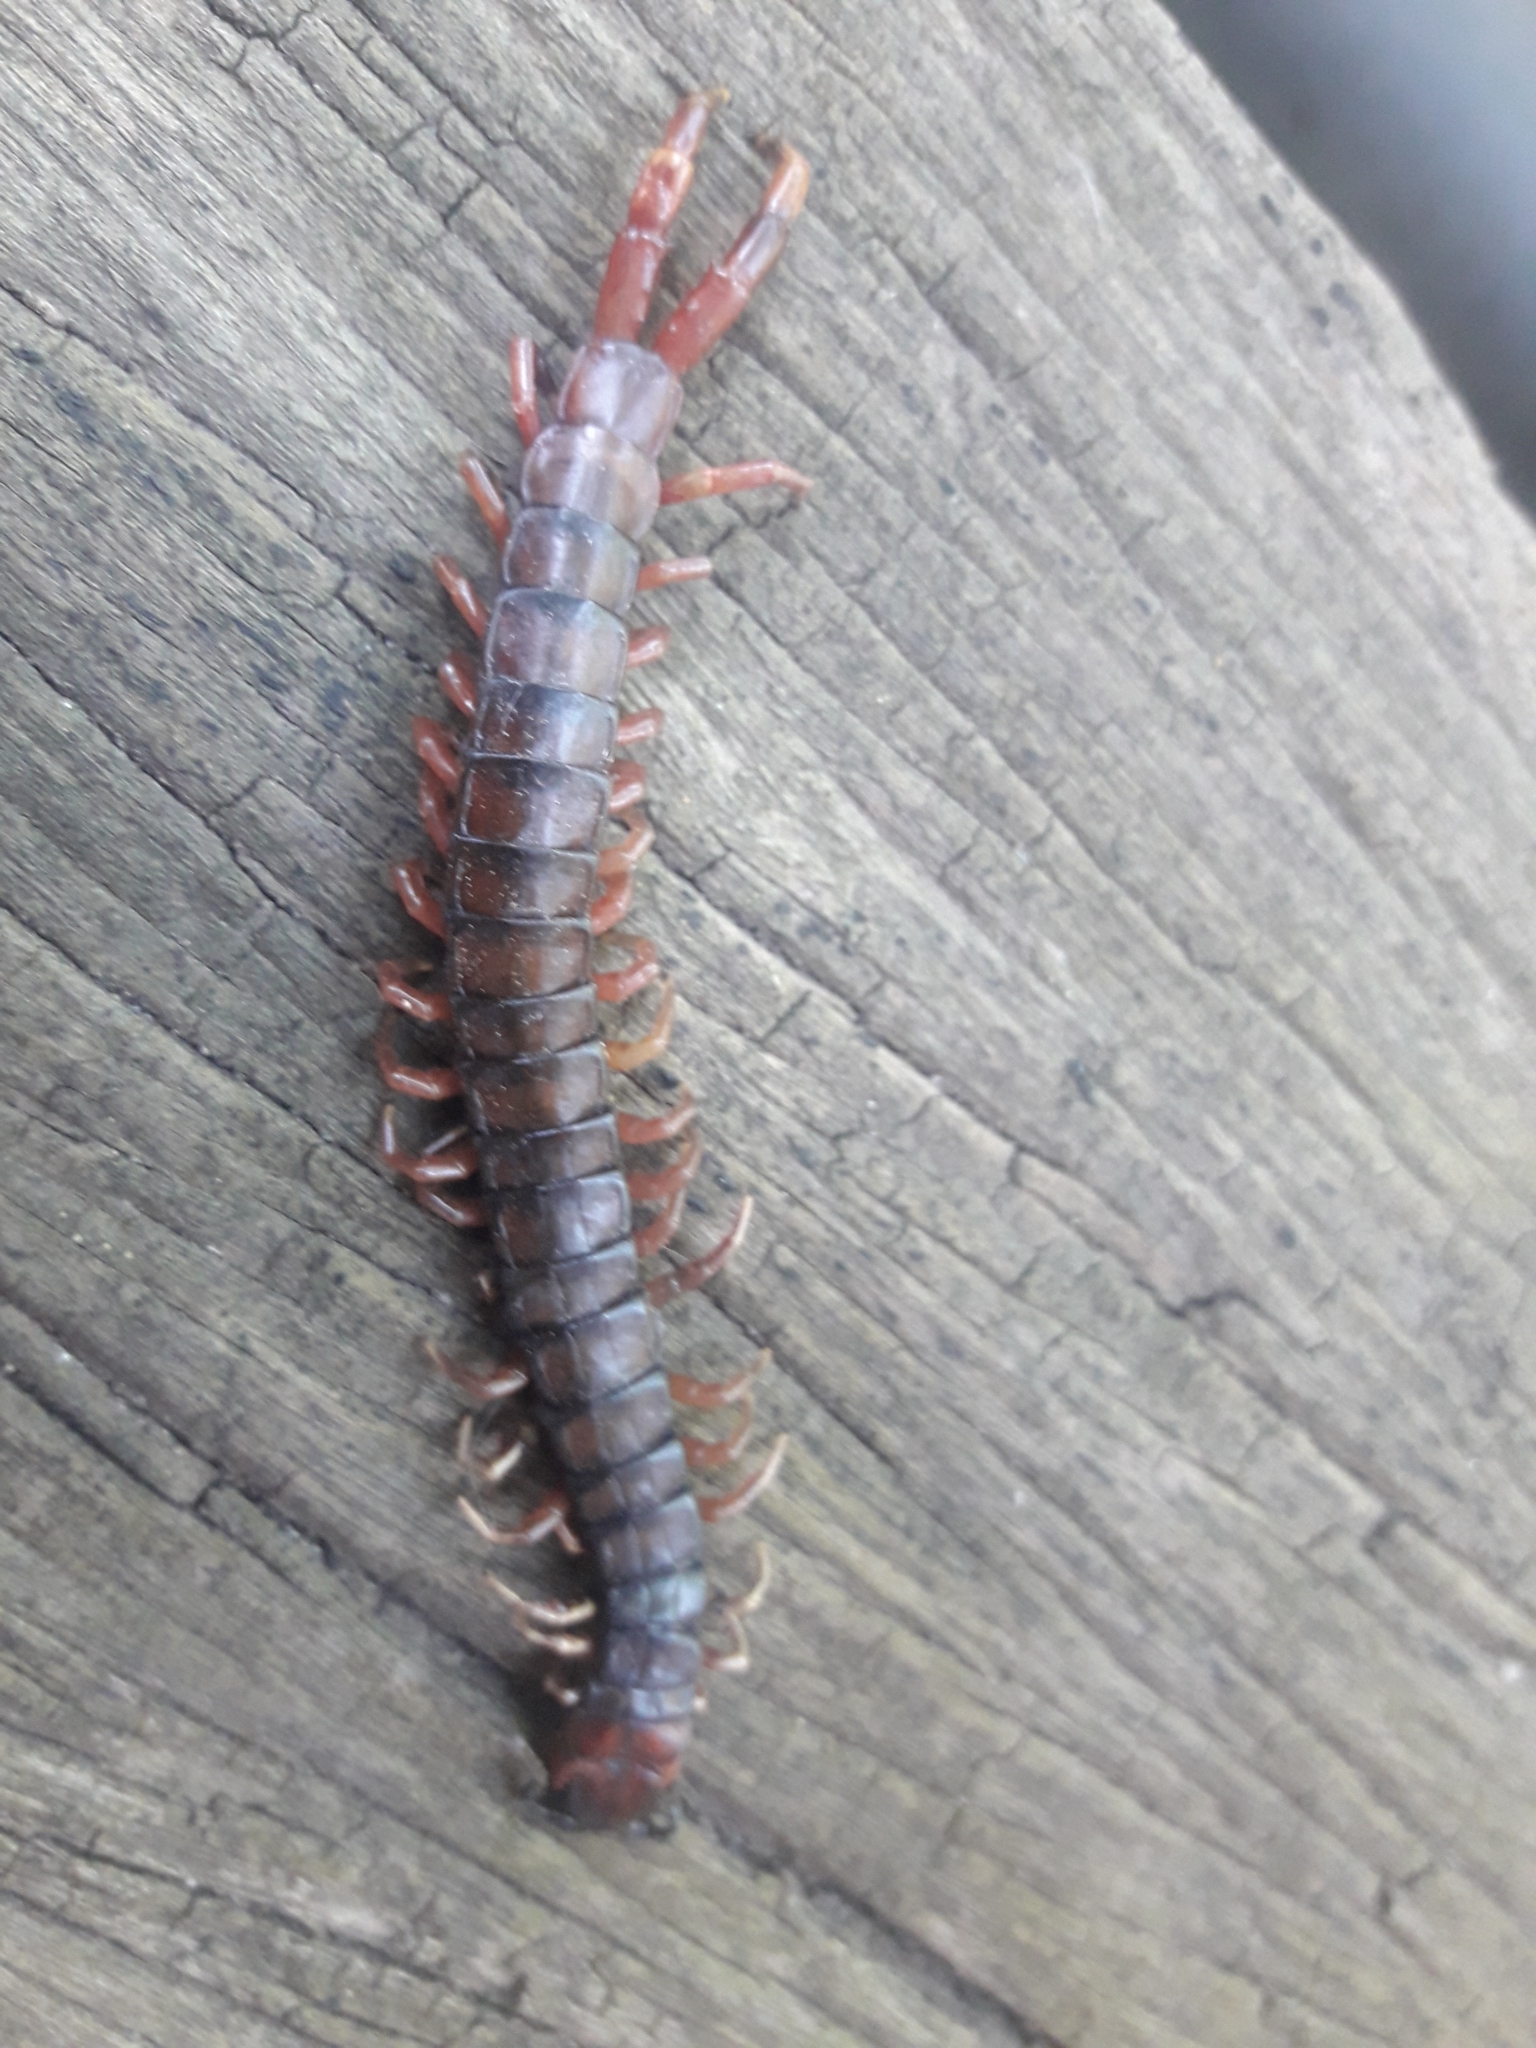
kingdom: Animalia
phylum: Arthropoda
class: Chilopoda
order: Scolopendromorpha
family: Scolopendridae
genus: Cormocephalus
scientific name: Cormocephalus aurantiipes
